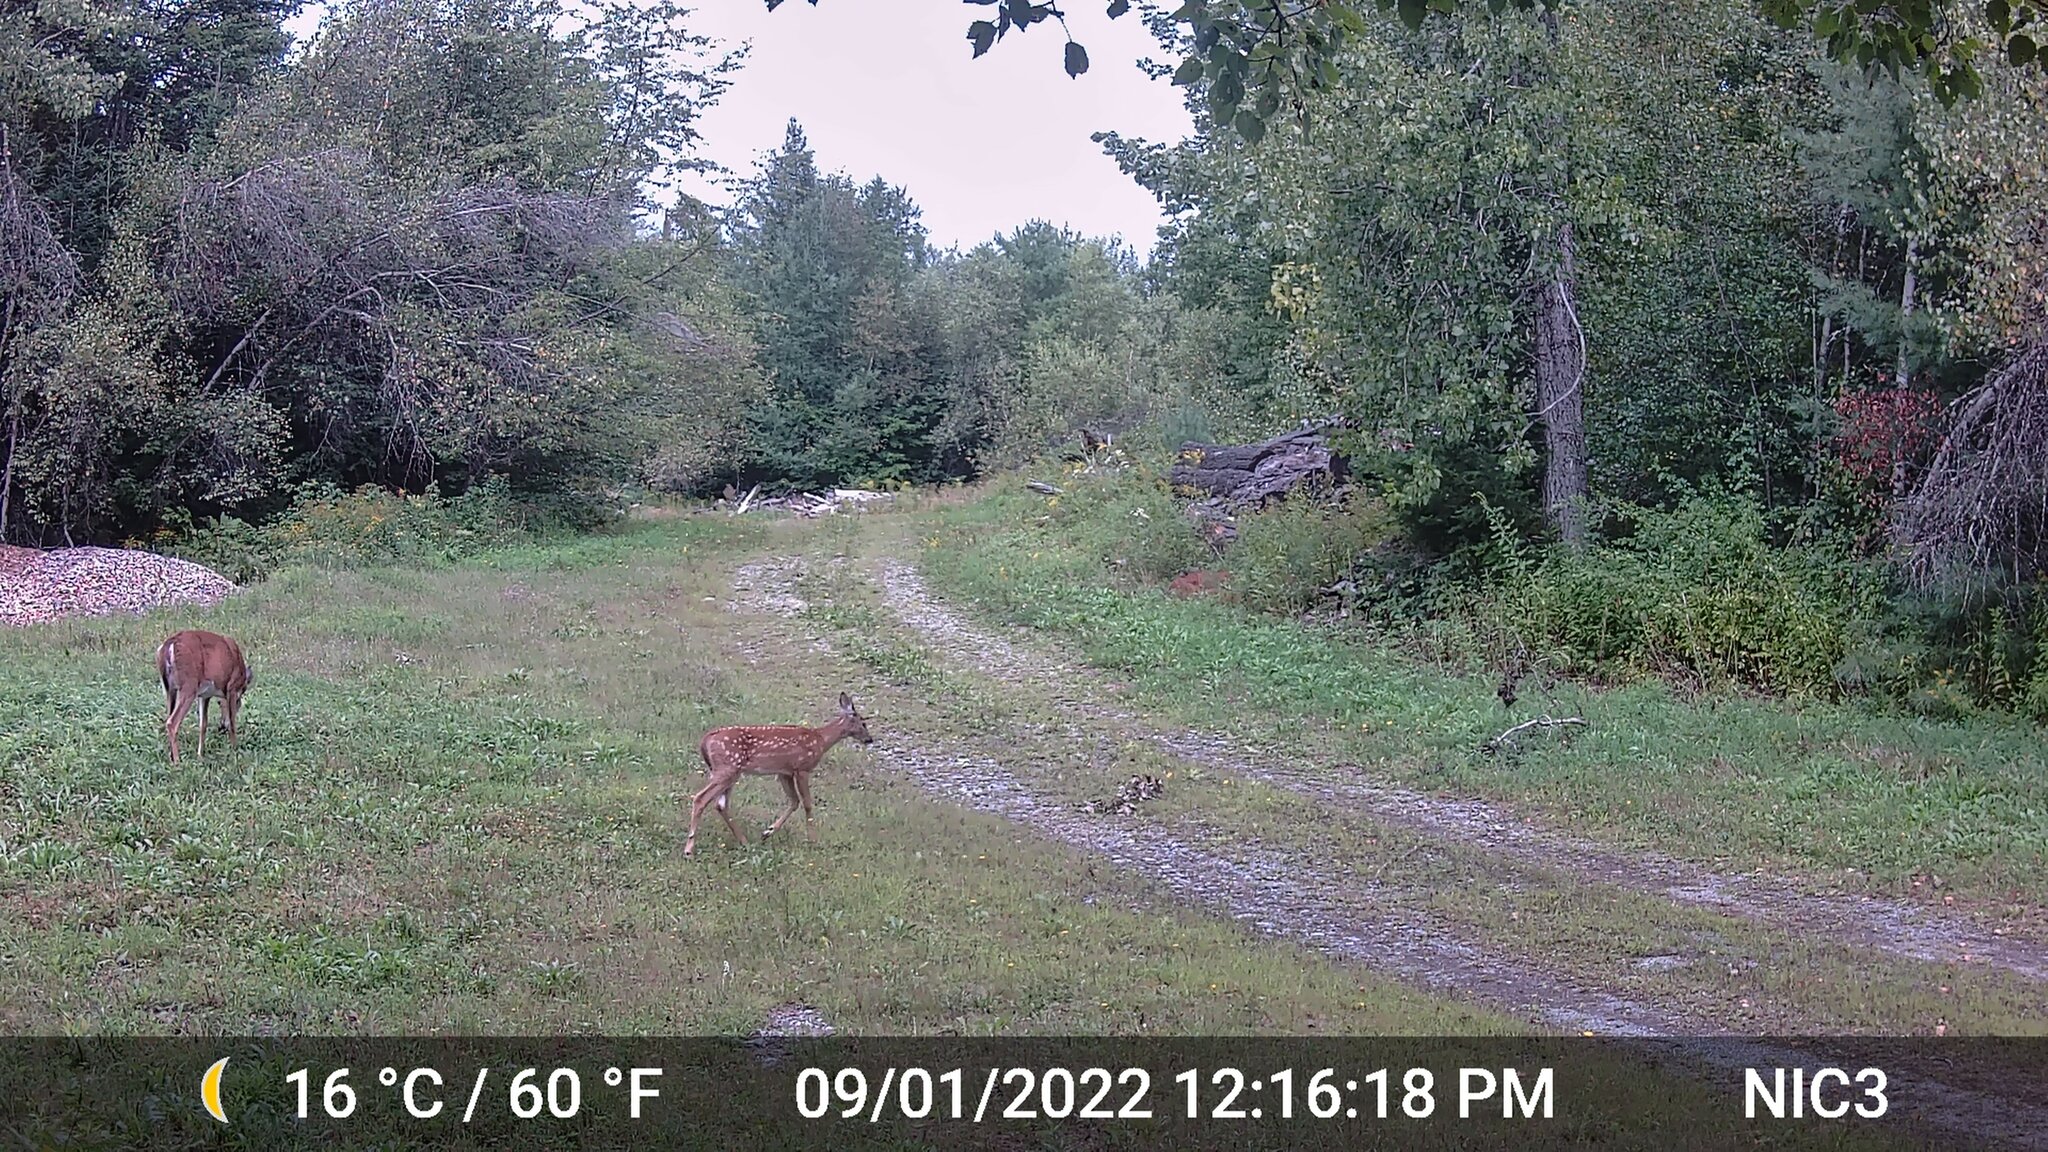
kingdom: Animalia
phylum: Chordata
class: Mammalia
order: Artiodactyla
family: Cervidae
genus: Odocoileus
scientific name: Odocoileus virginianus
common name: White-tailed deer
